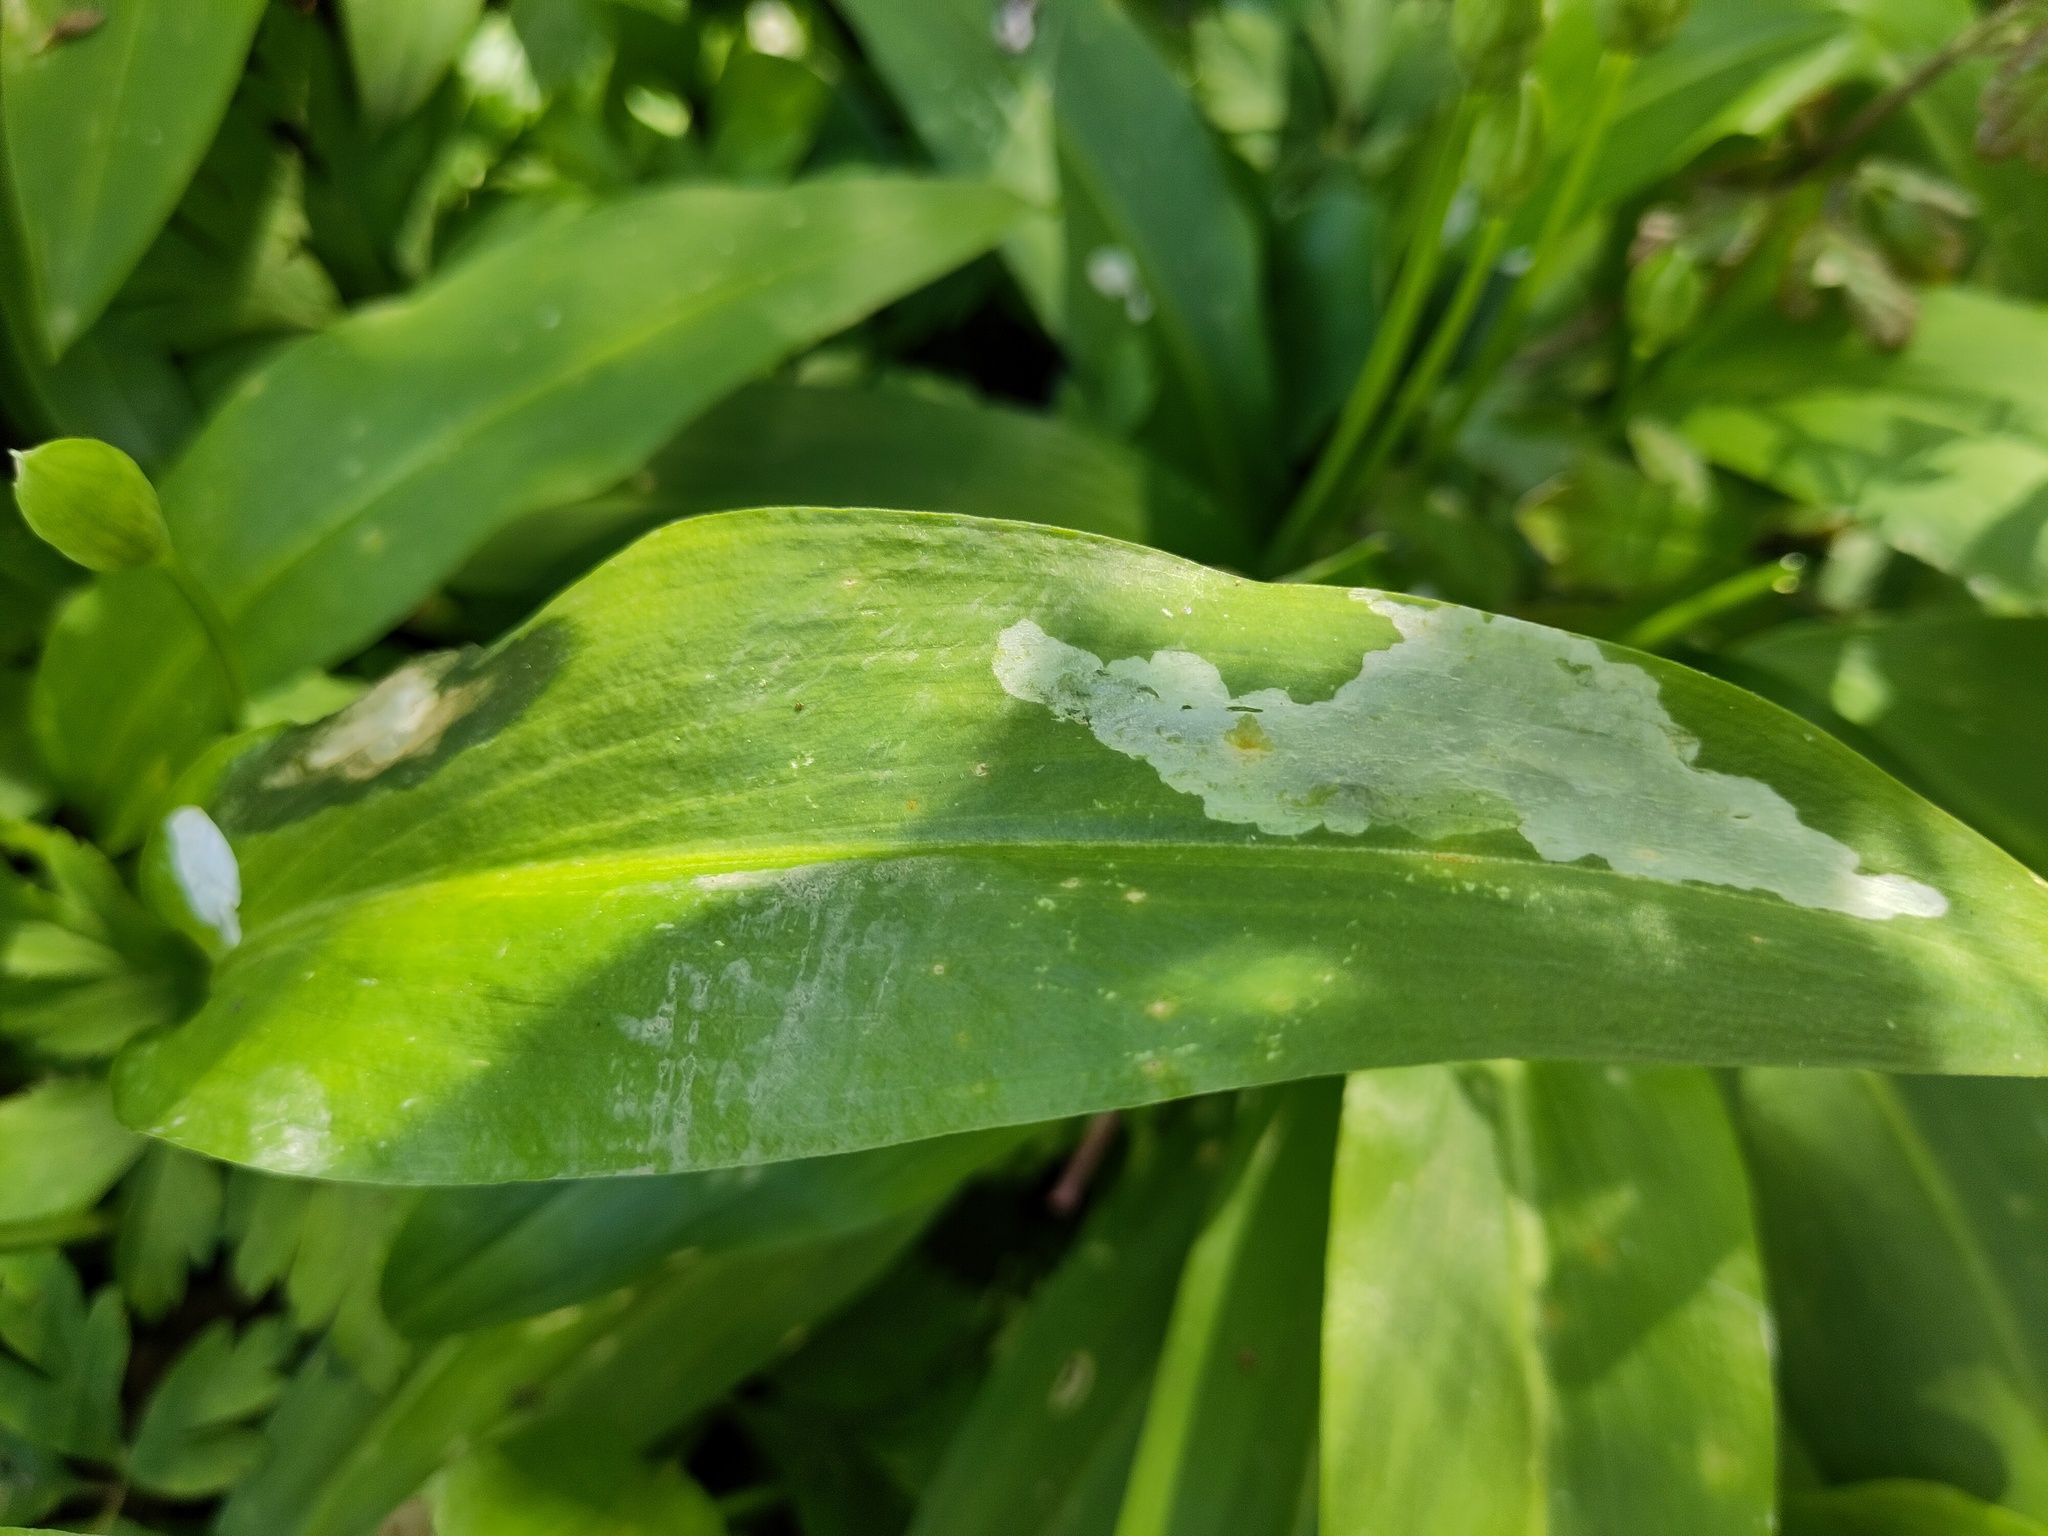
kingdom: Animalia
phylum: Arthropoda
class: Insecta
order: Diptera
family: Syrphidae
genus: Cheilosia
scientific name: Cheilosia fasciata
